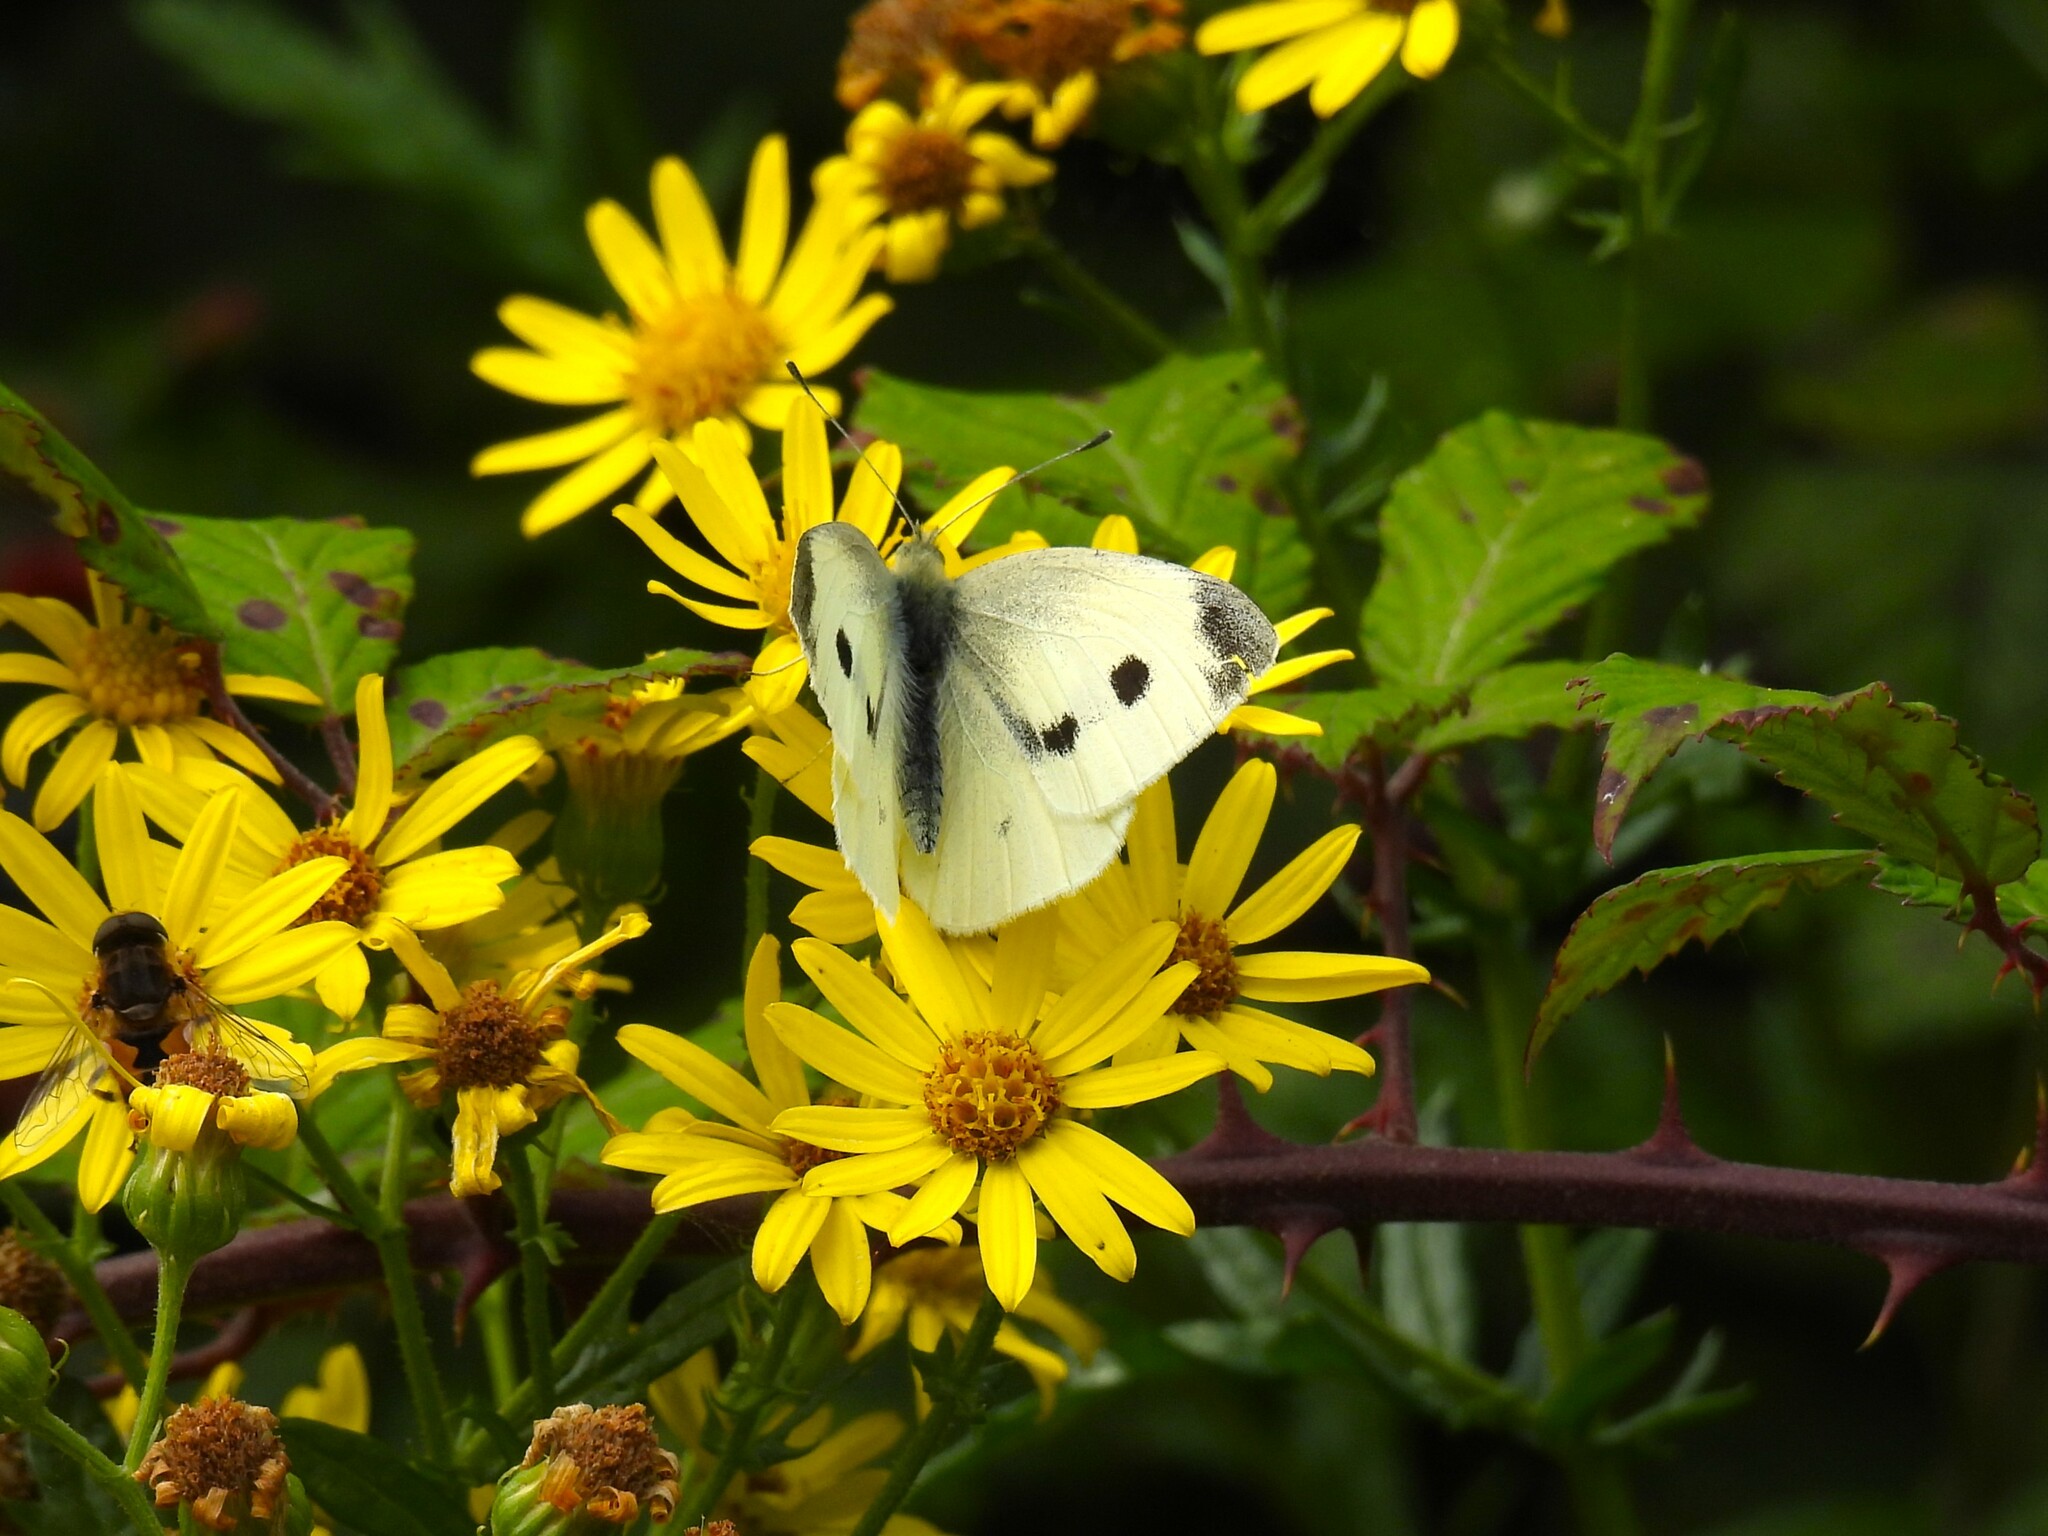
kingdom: Animalia
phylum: Arthropoda
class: Insecta
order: Lepidoptera
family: Pieridae
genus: Pieris
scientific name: Pieris rapae
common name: Small white
